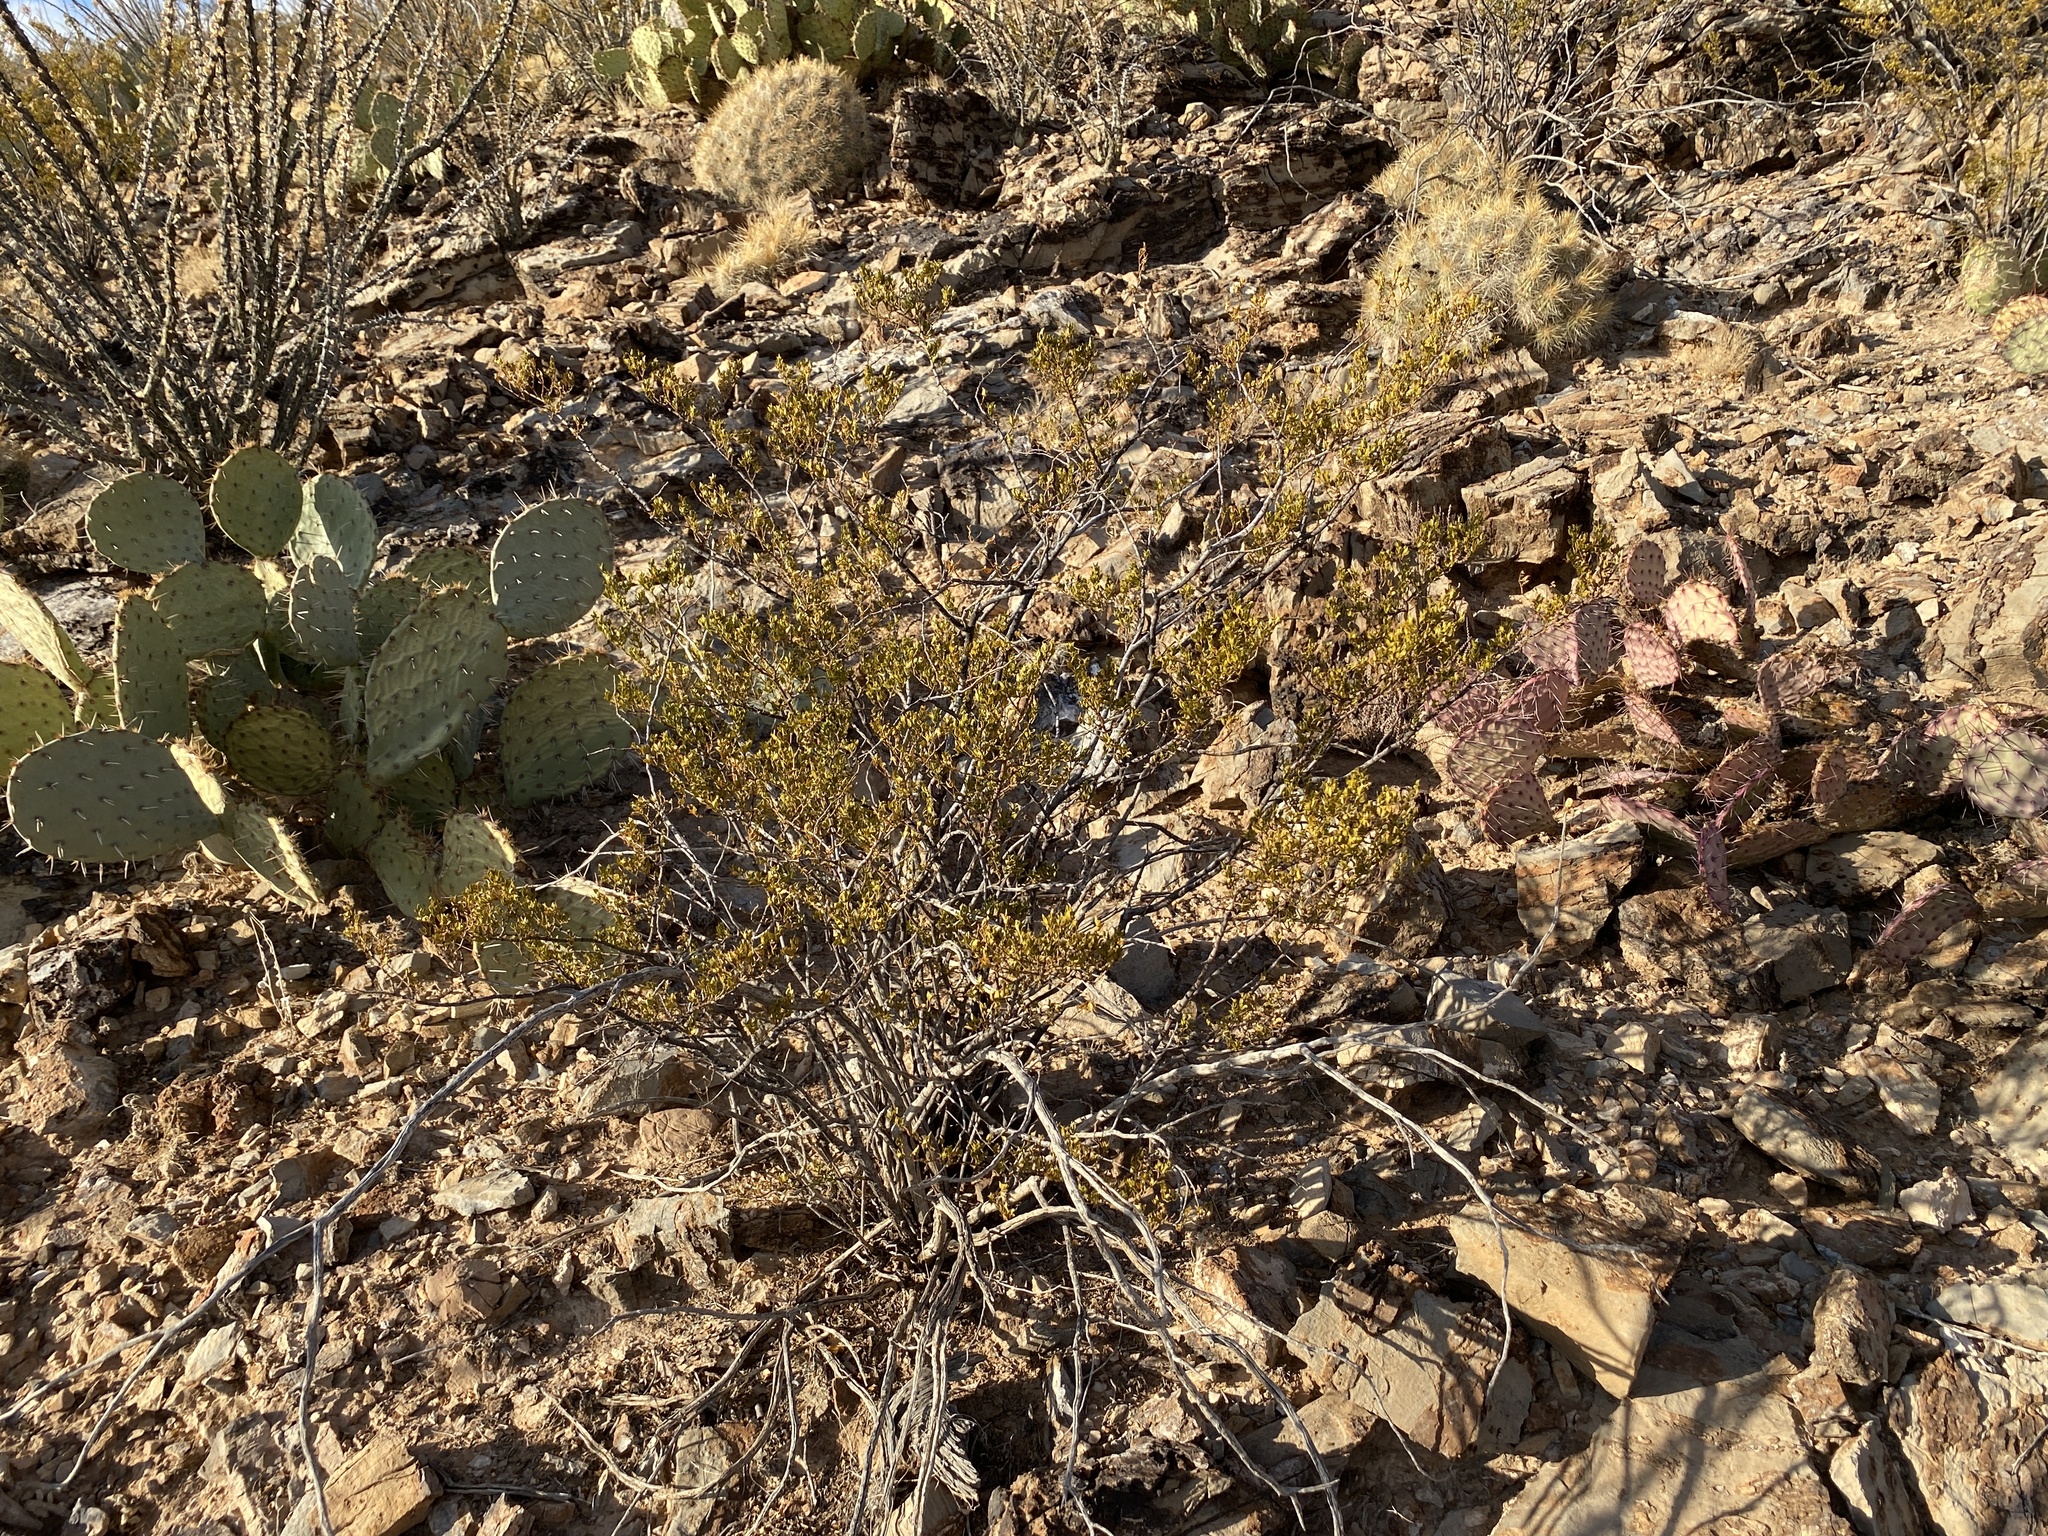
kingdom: Plantae
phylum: Tracheophyta
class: Magnoliopsida
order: Zygophyllales
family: Zygophyllaceae
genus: Larrea
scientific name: Larrea tridentata
